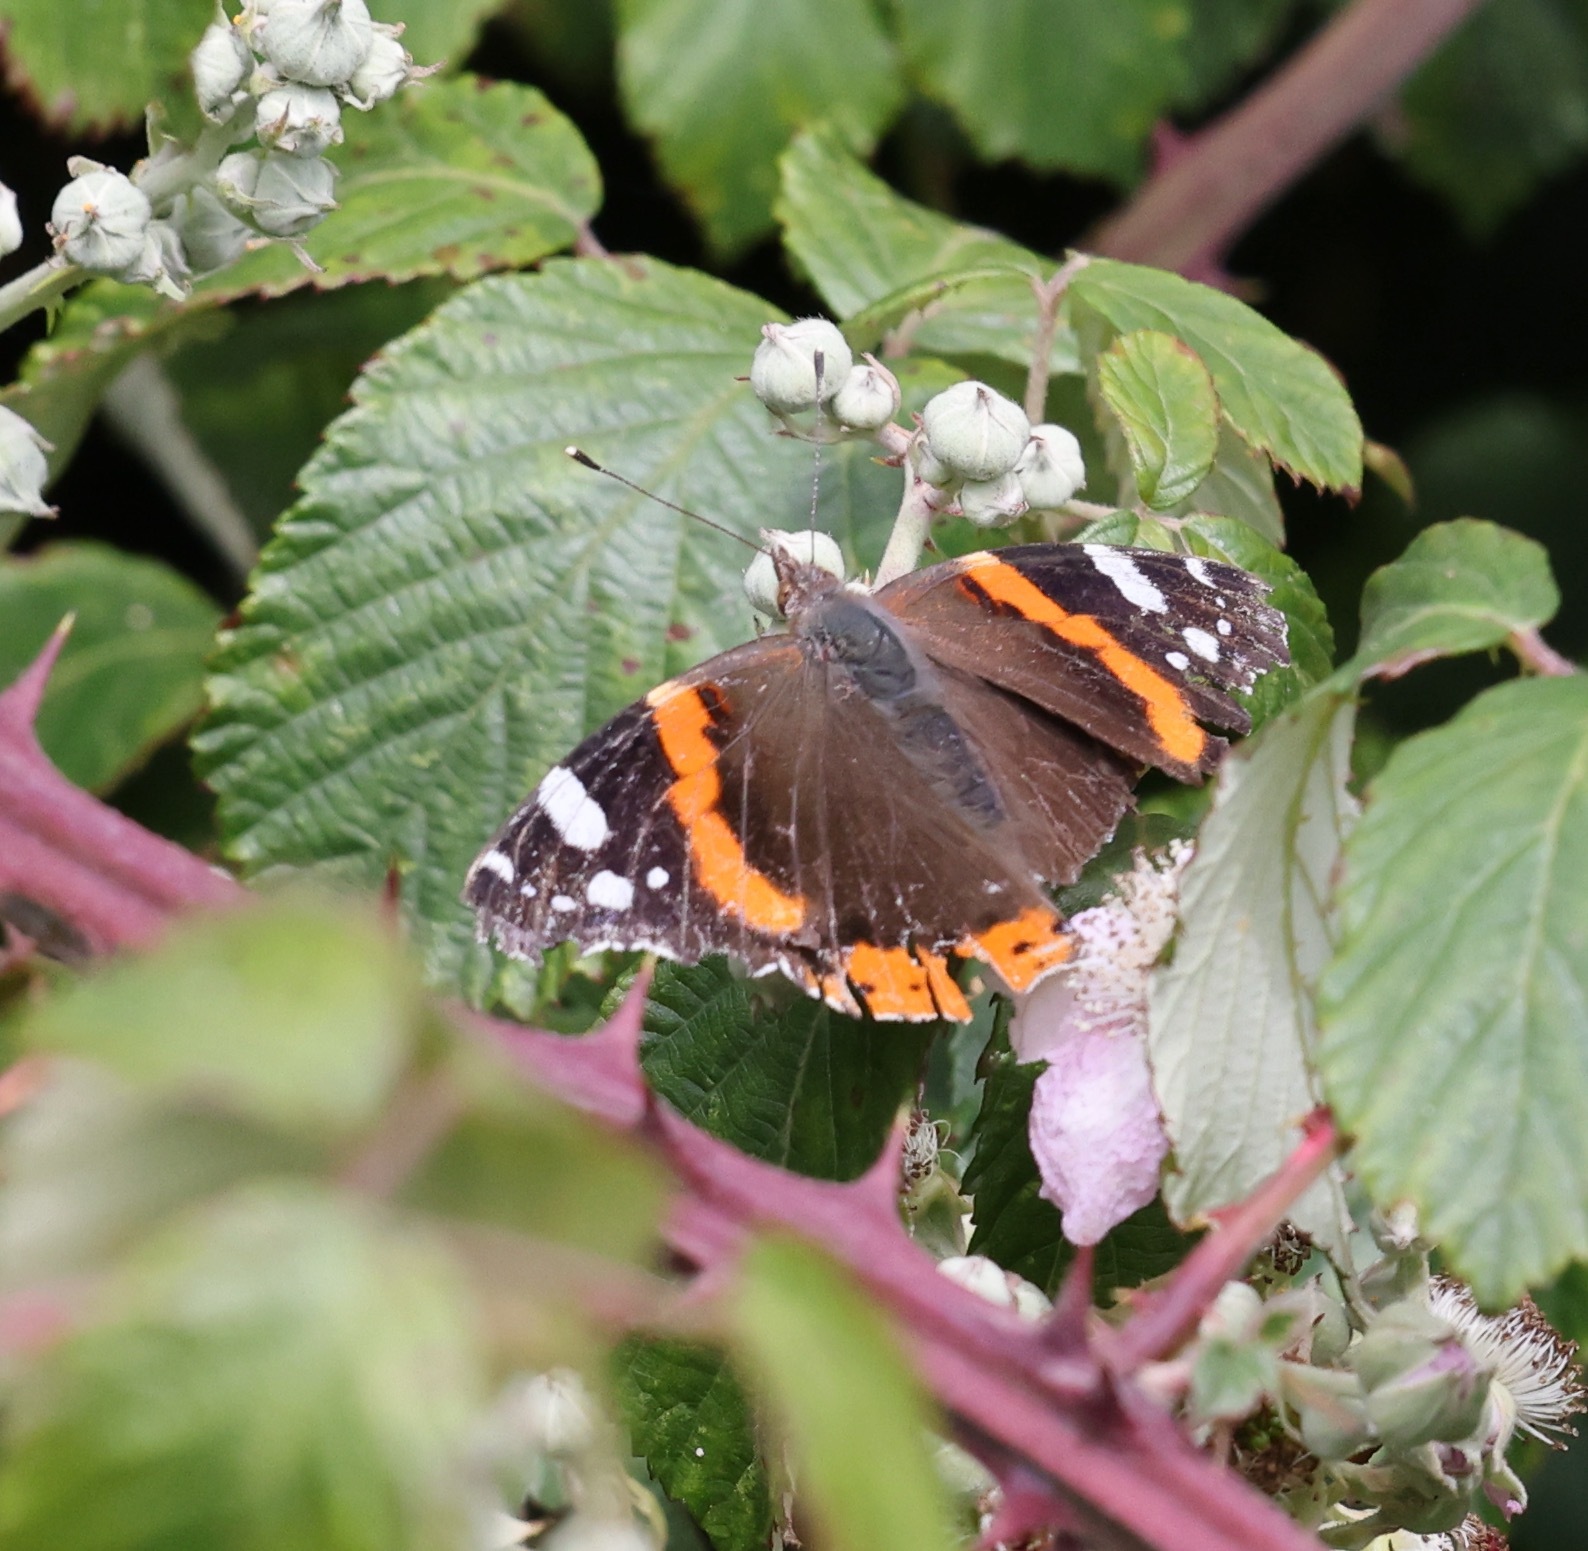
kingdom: Animalia
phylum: Arthropoda
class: Insecta
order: Lepidoptera
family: Nymphalidae
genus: Vanessa
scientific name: Vanessa atalanta
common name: Red admiral
